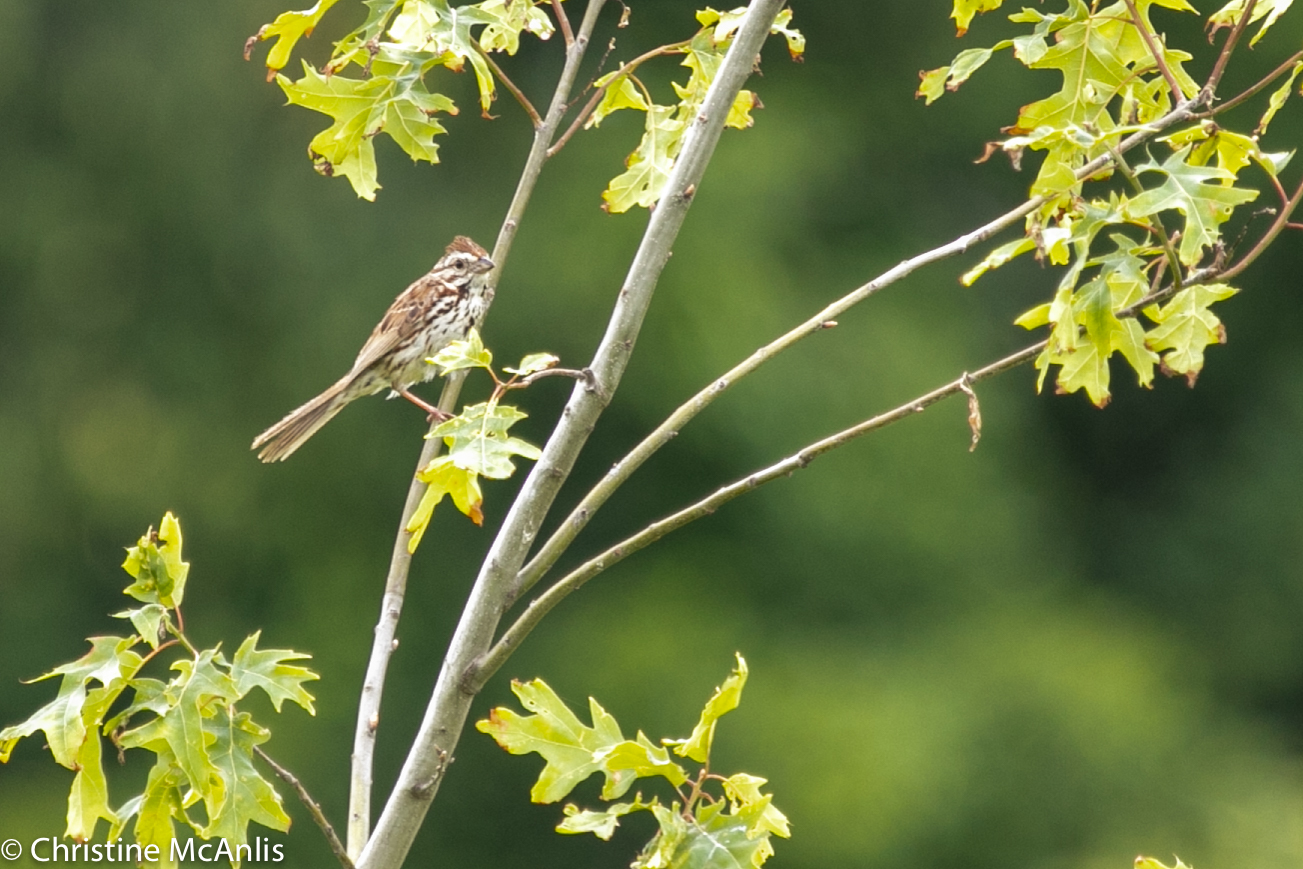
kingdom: Animalia
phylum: Chordata
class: Aves
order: Passeriformes
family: Passerellidae
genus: Melospiza
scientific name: Melospiza melodia
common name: Song sparrow
